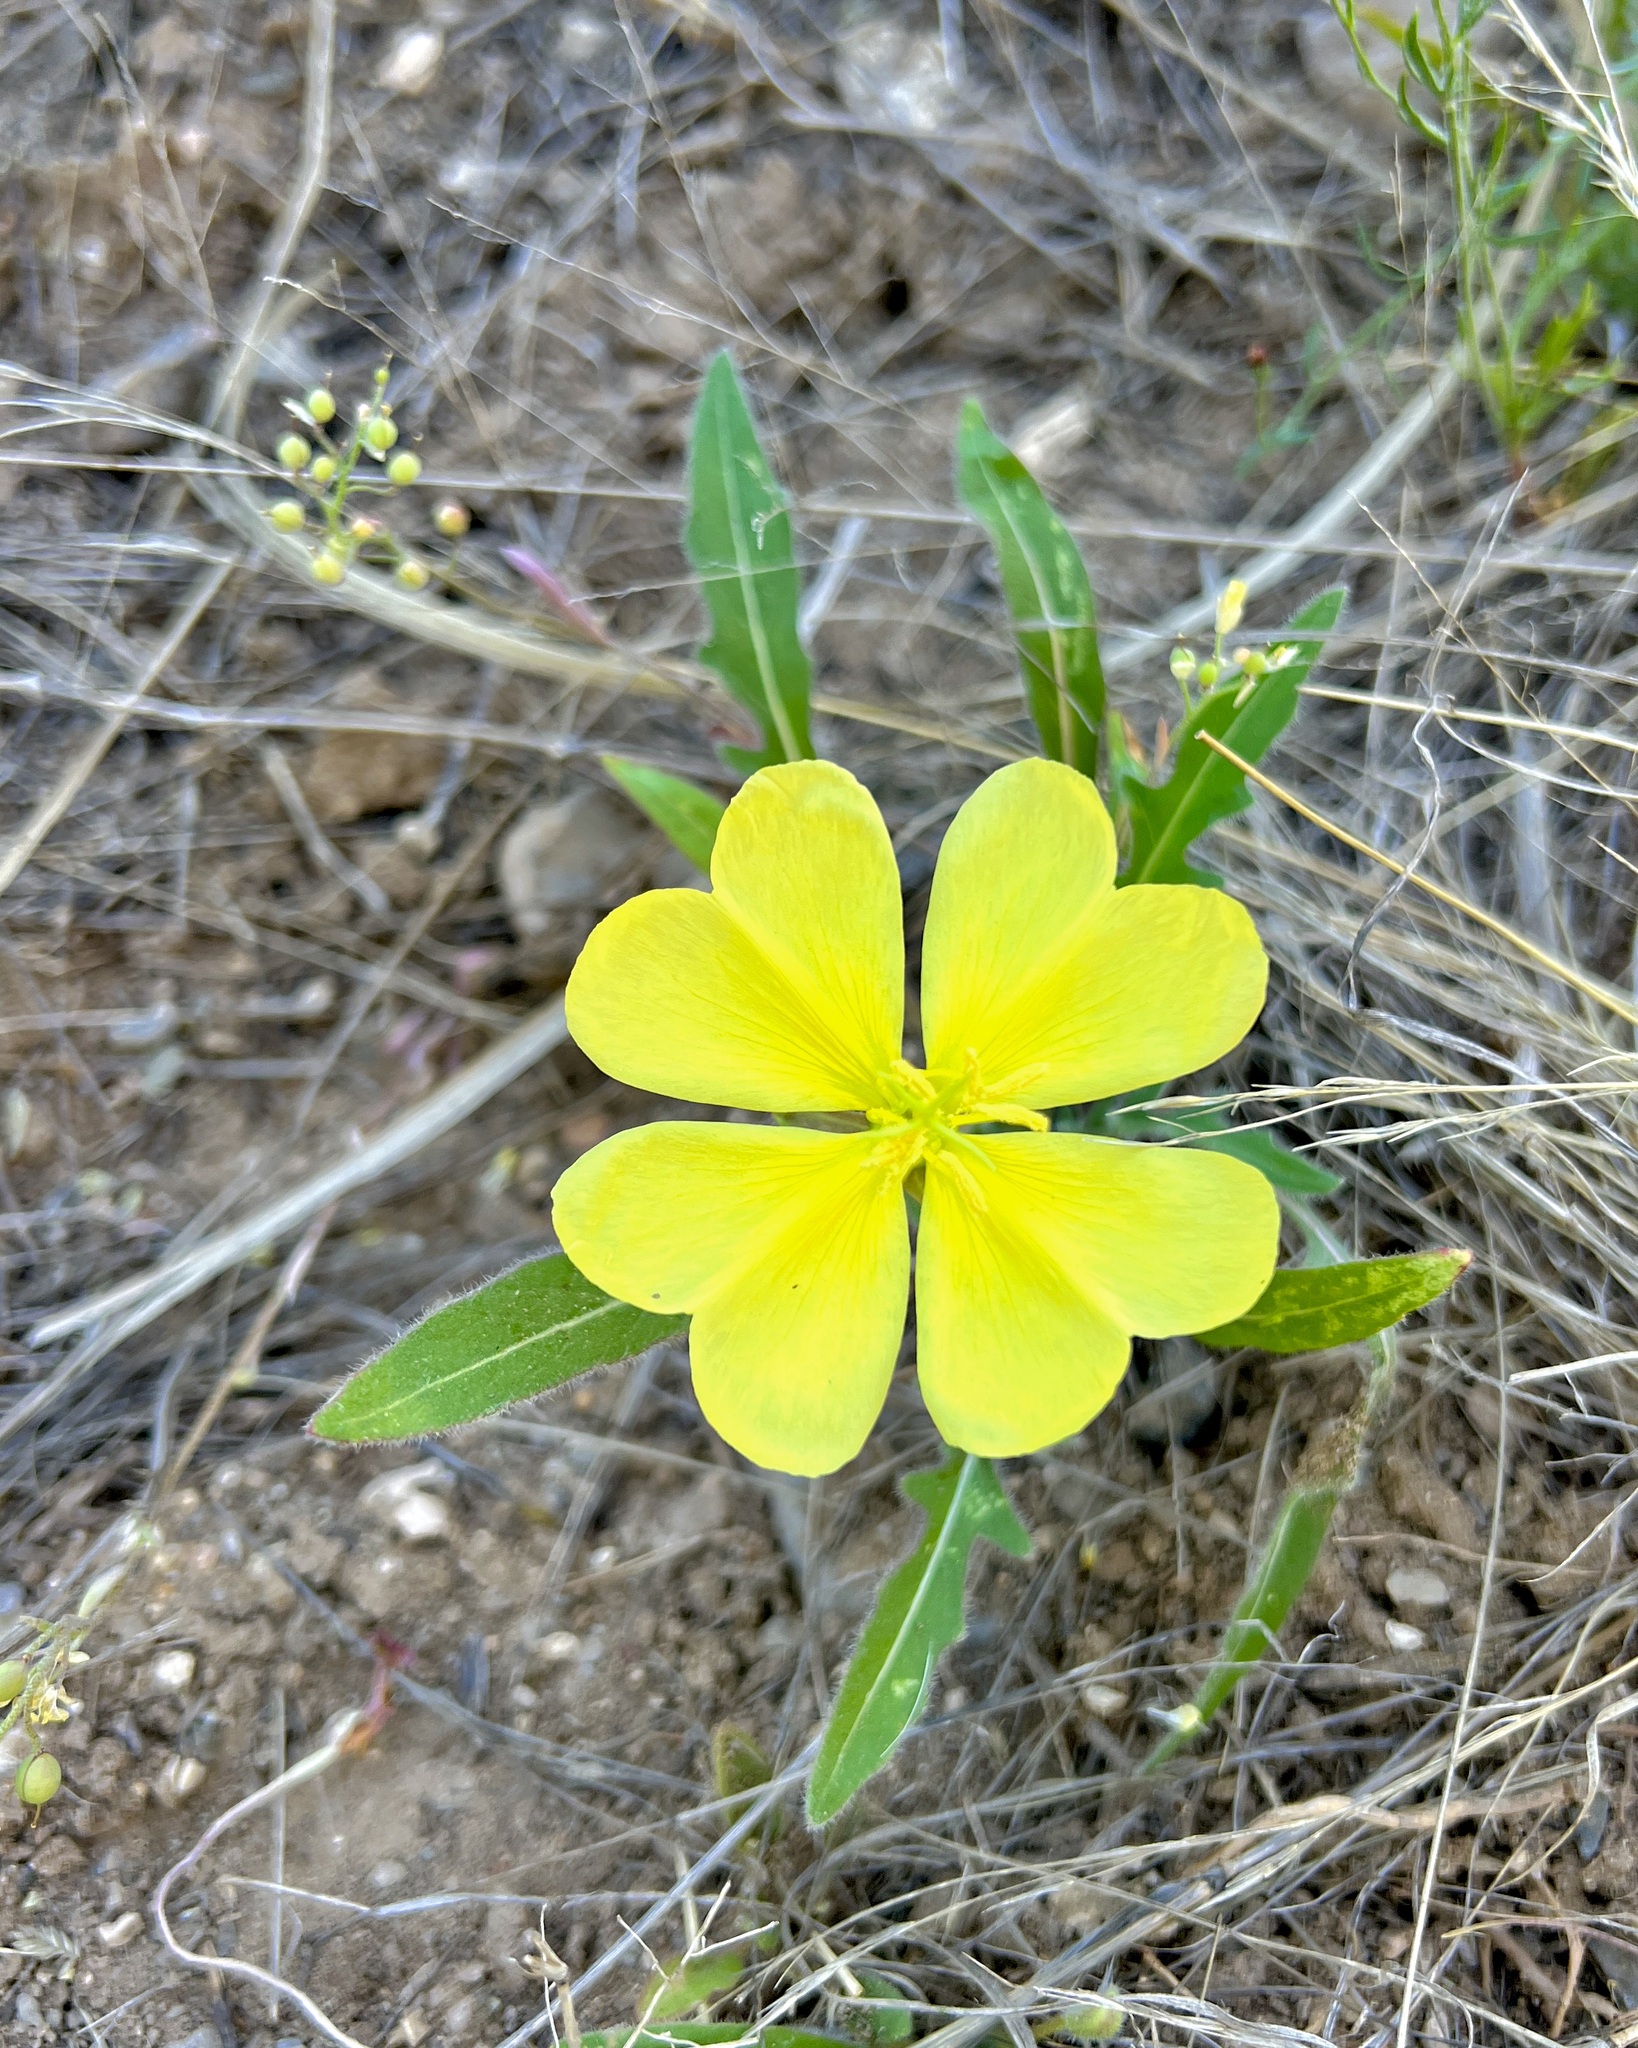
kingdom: Plantae
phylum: Tracheophyta
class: Magnoliopsida
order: Myrtales
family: Onagraceae
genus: Oenothera
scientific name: Oenothera primiveris
